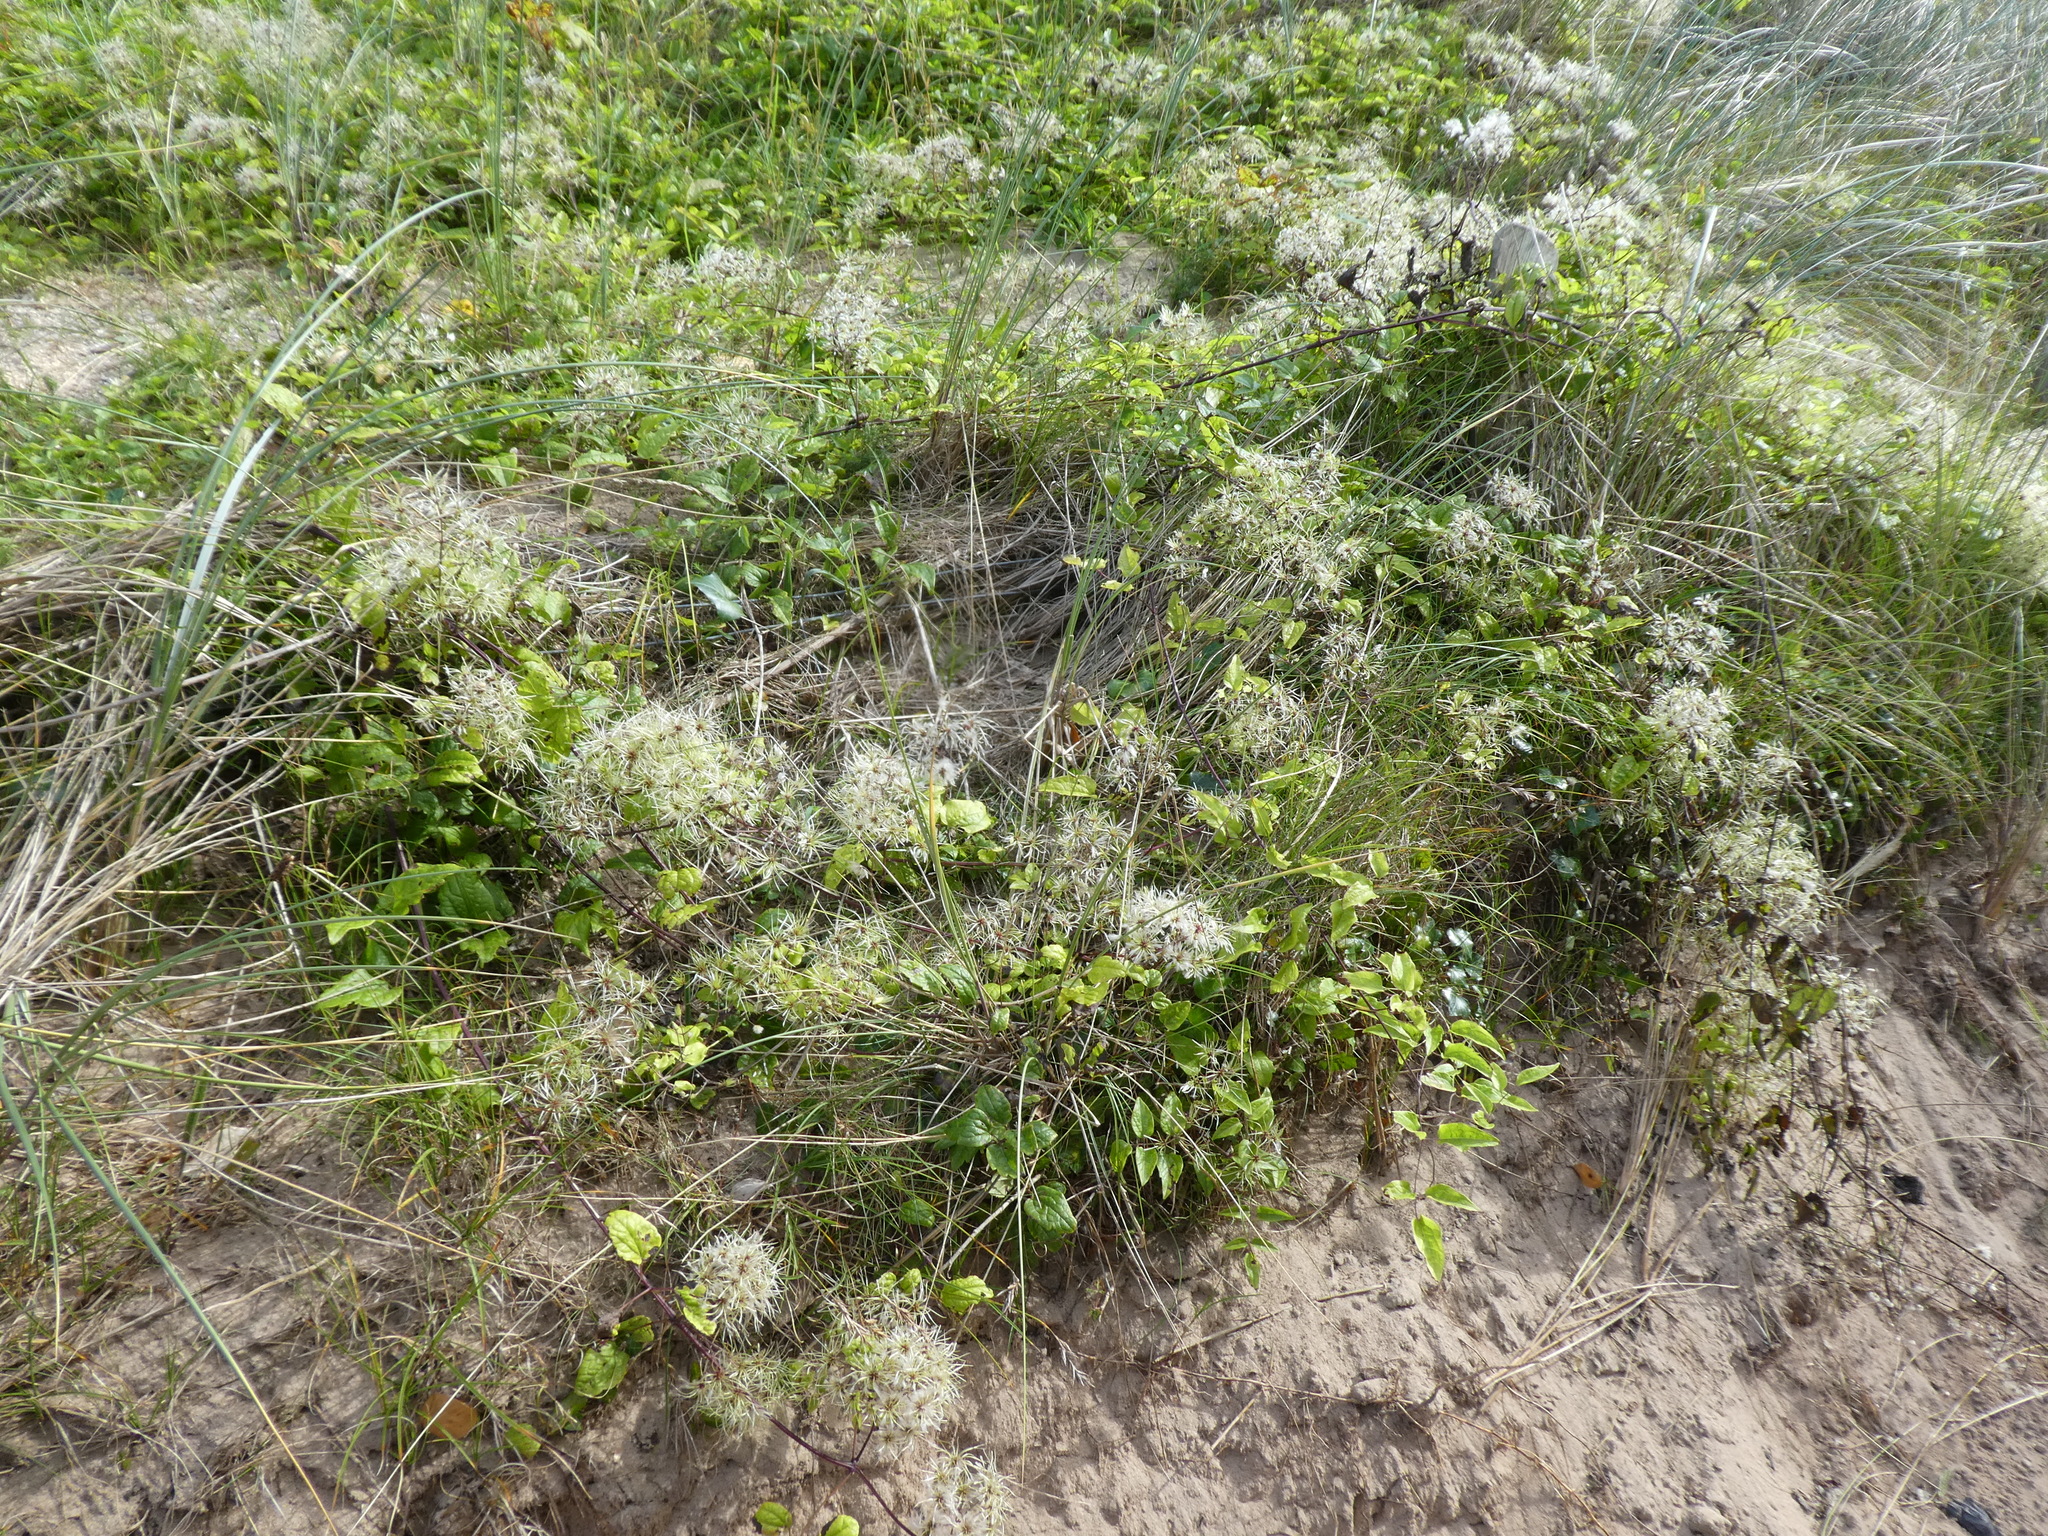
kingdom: Plantae
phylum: Tracheophyta
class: Magnoliopsida
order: Ranunculales
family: Ranunculaceae
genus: Clematis
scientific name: Clematis vitalba
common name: Evergreen clematis
